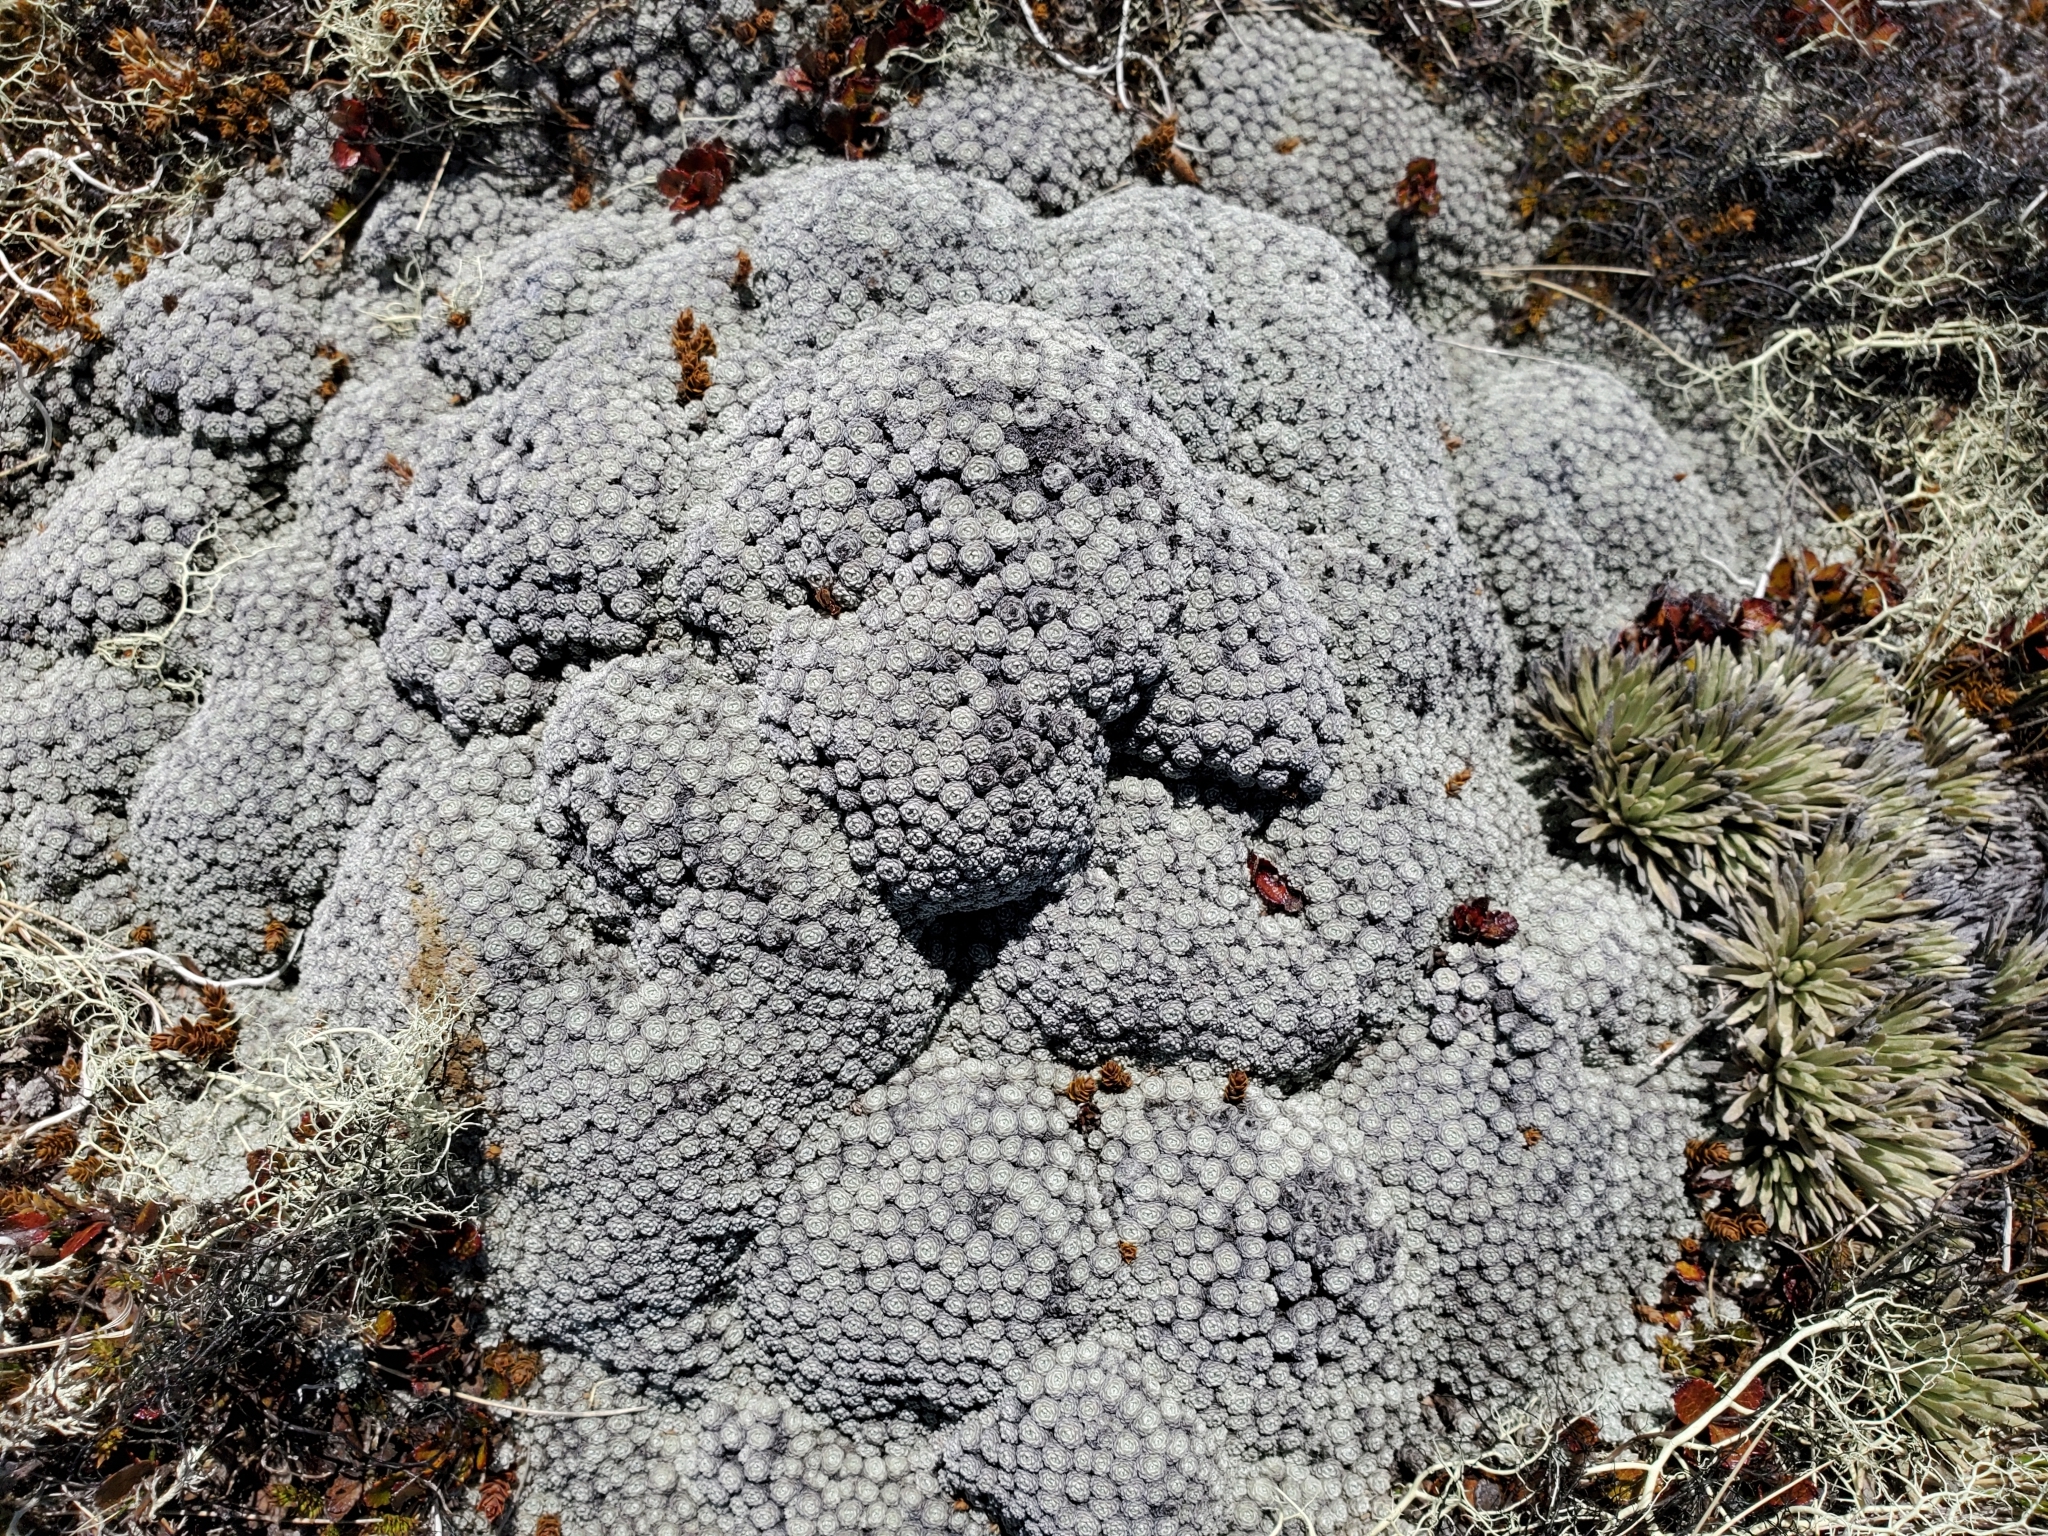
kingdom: Plantae
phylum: Tracheophyta
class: Magnoliopsida
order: Asterales
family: Asteraceae
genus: Raoulia
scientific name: Raoulia bryoides
